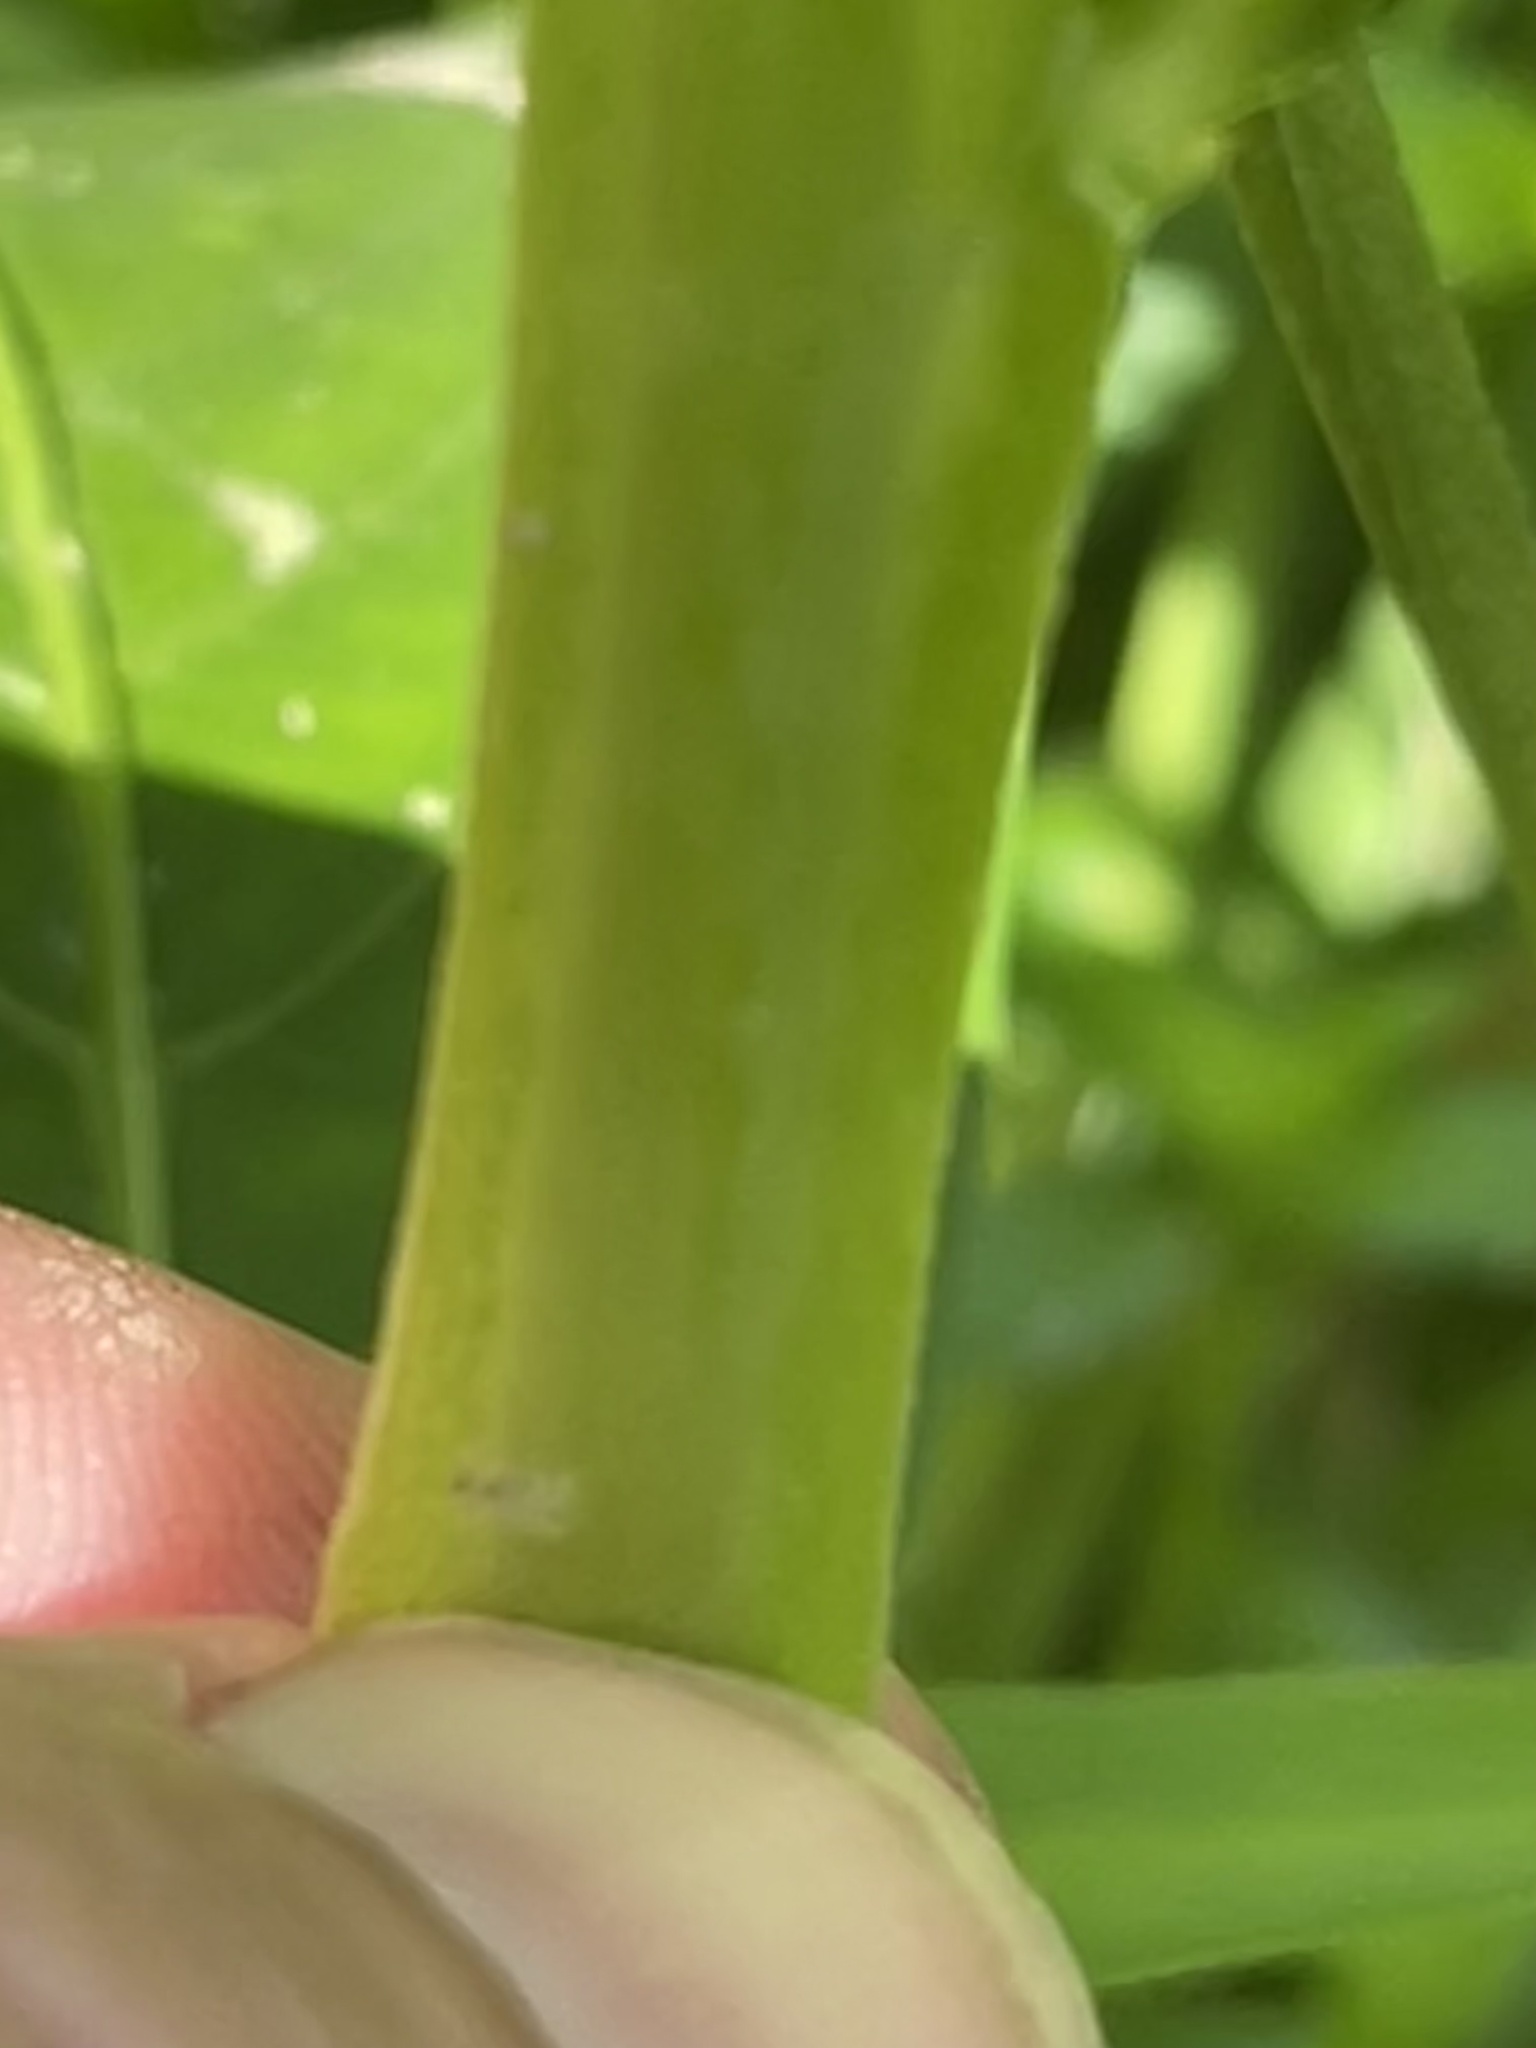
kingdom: Plantae
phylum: Tracheophyta
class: Magnoliopsida
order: Myrtales
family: Onagraceae
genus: Ludwigia
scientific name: Ludwigia decurrens
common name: Winged water-primrose
